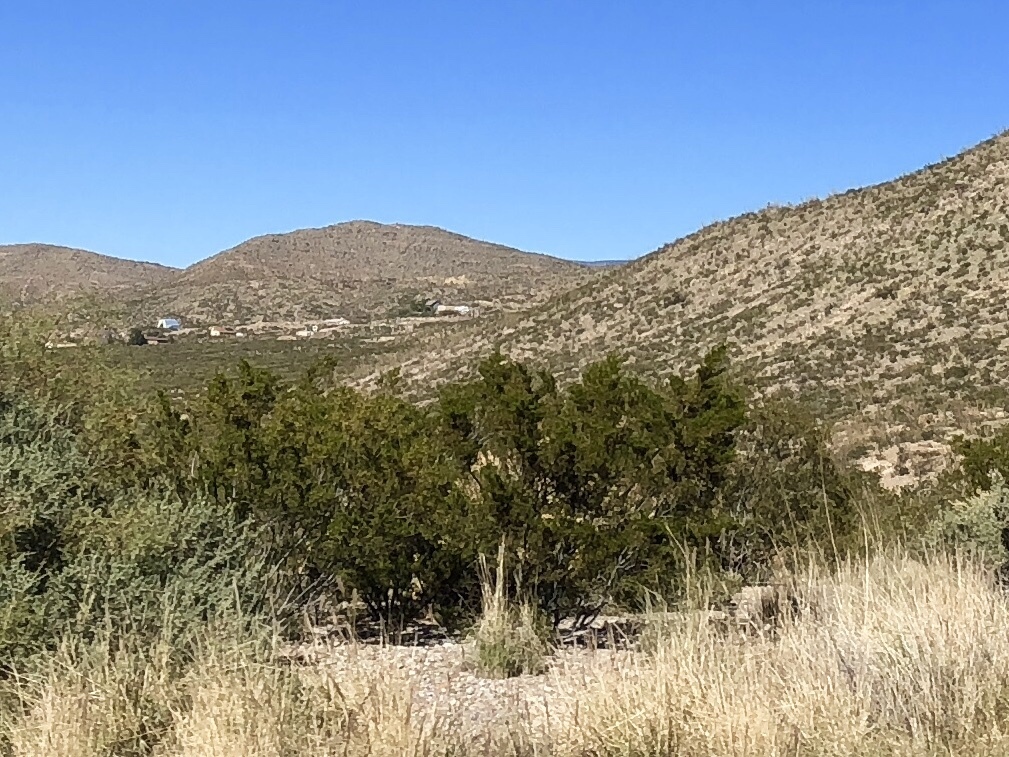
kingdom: Plantae
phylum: Tracheophyta
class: Magnoliopsida
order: Zygophyllales
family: Zygophyllaceae
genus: Larrea
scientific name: Larrea tridentata
